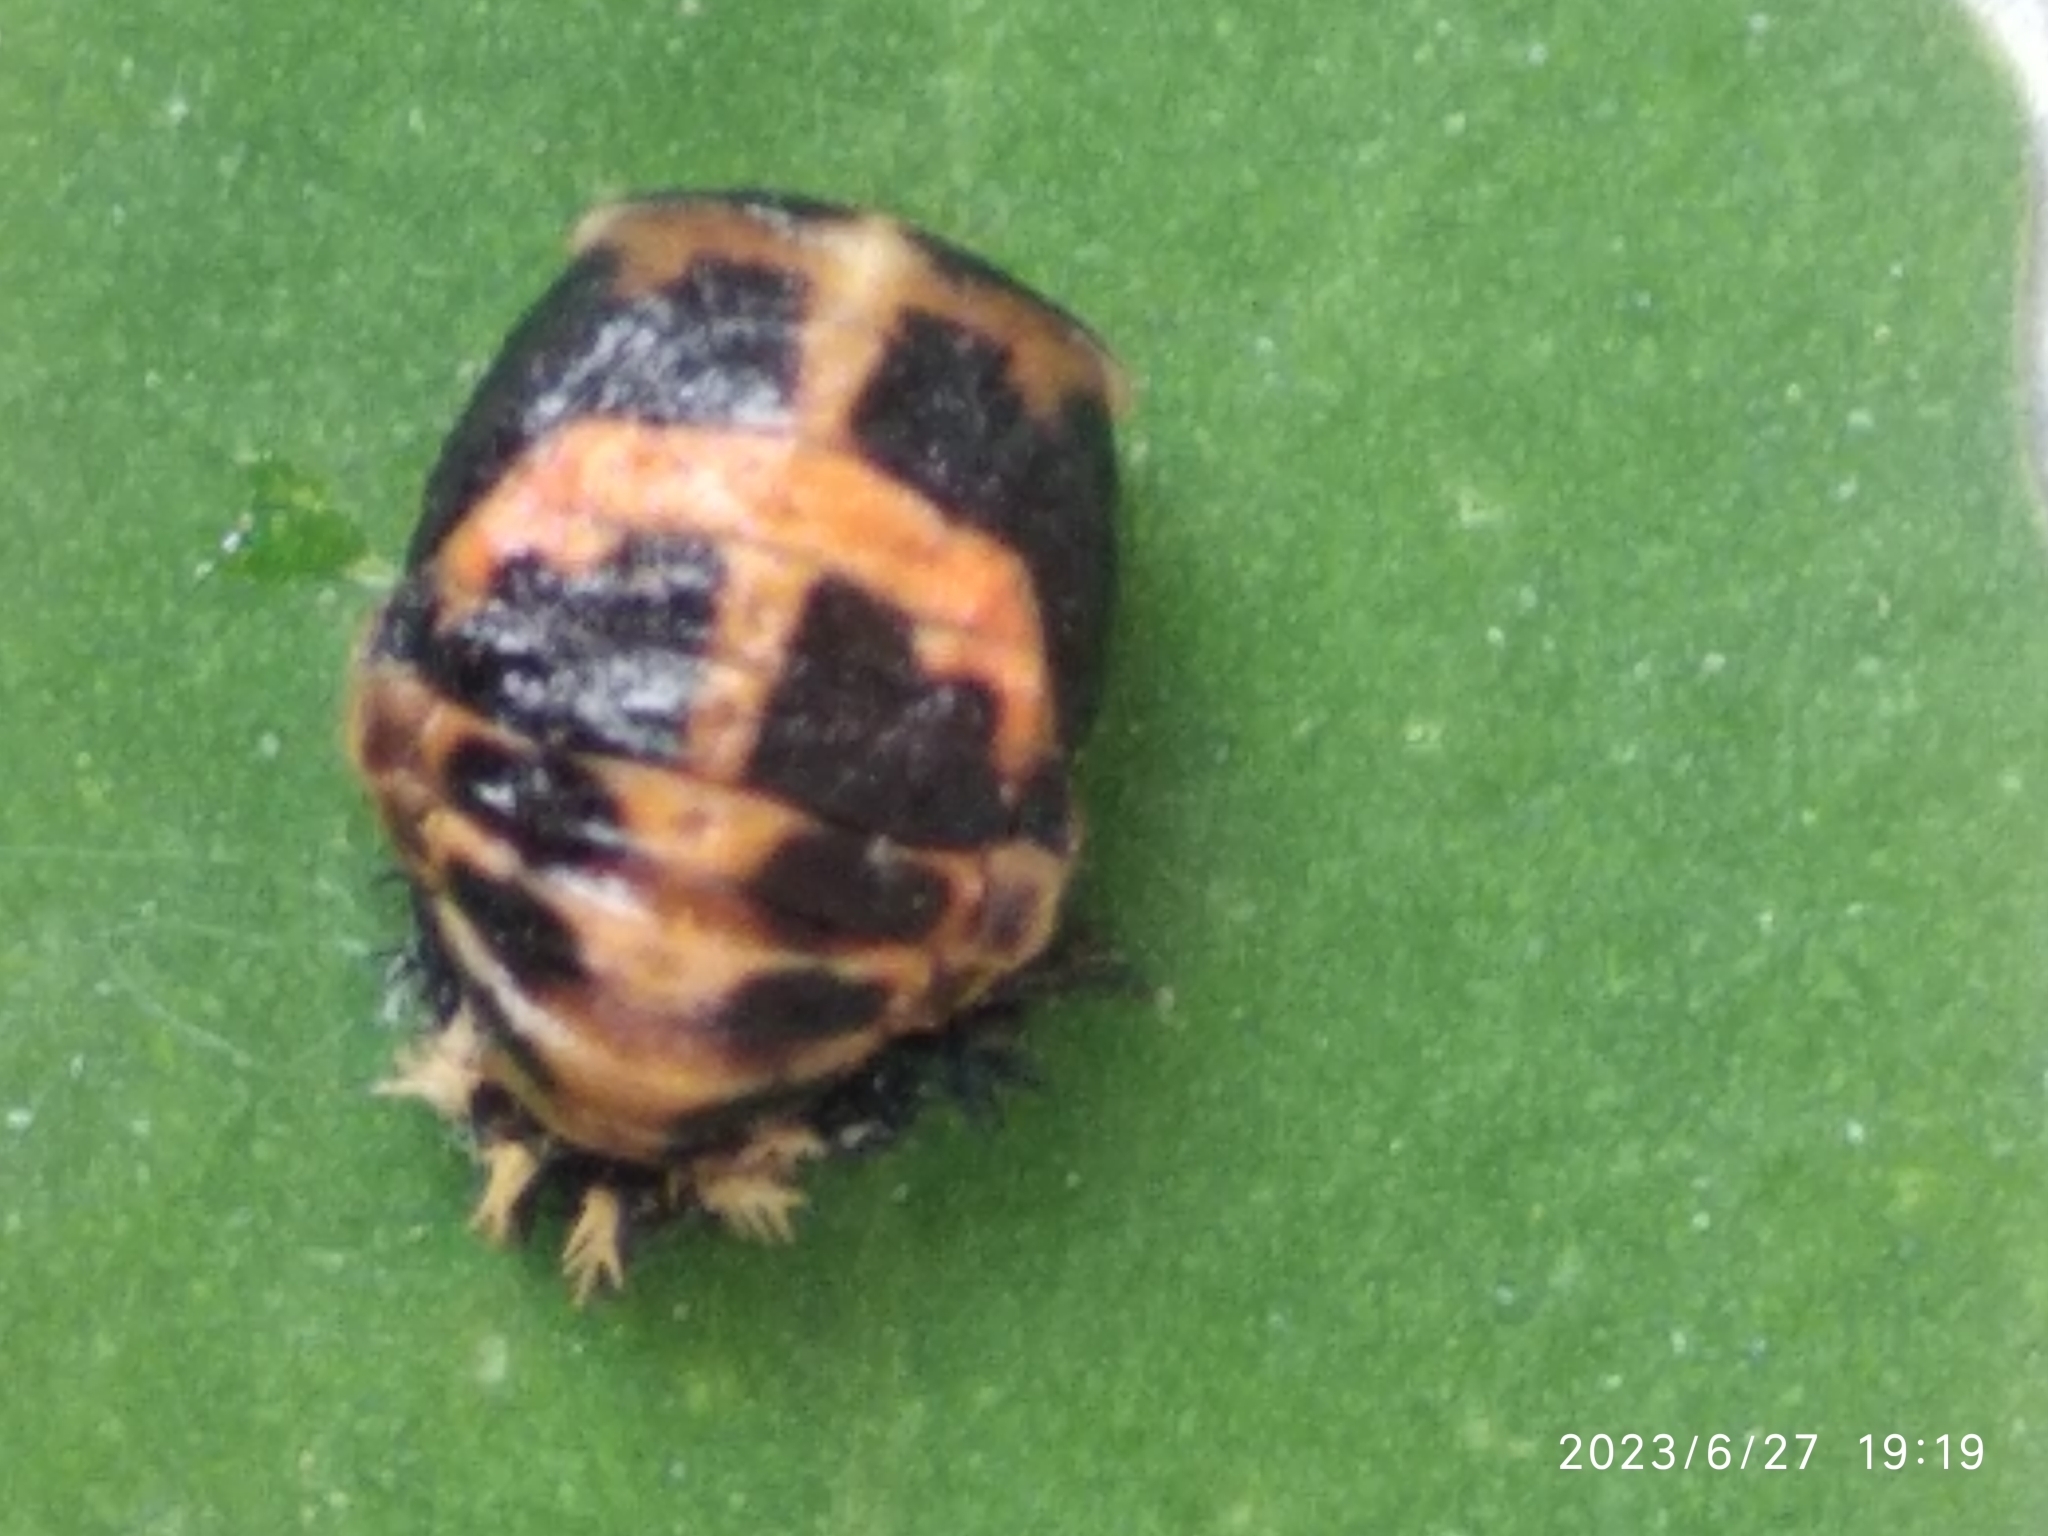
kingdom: Animalia
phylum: Arthropoda
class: Insecta
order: Coleoptera
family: Coccinellidae
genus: Harmonia
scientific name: Harmonia axyridis
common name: Harlequin ladybird
